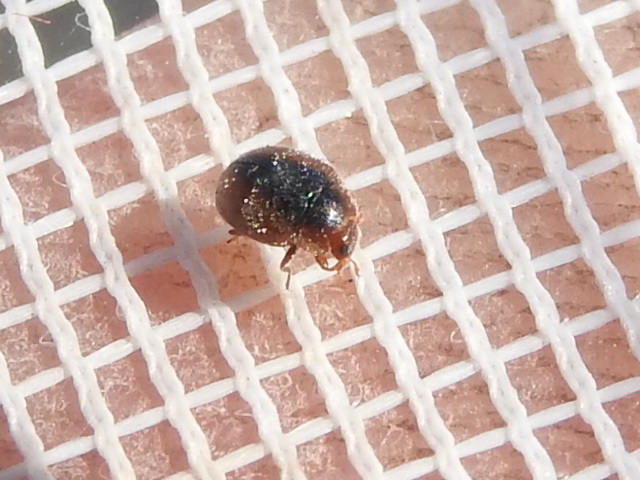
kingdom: Animalia
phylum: Arthropoda
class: Insecta
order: Coleoptera
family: Coccinellidae
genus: Scymnus
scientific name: Scymnus loewii
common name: Dusky lady beetle
